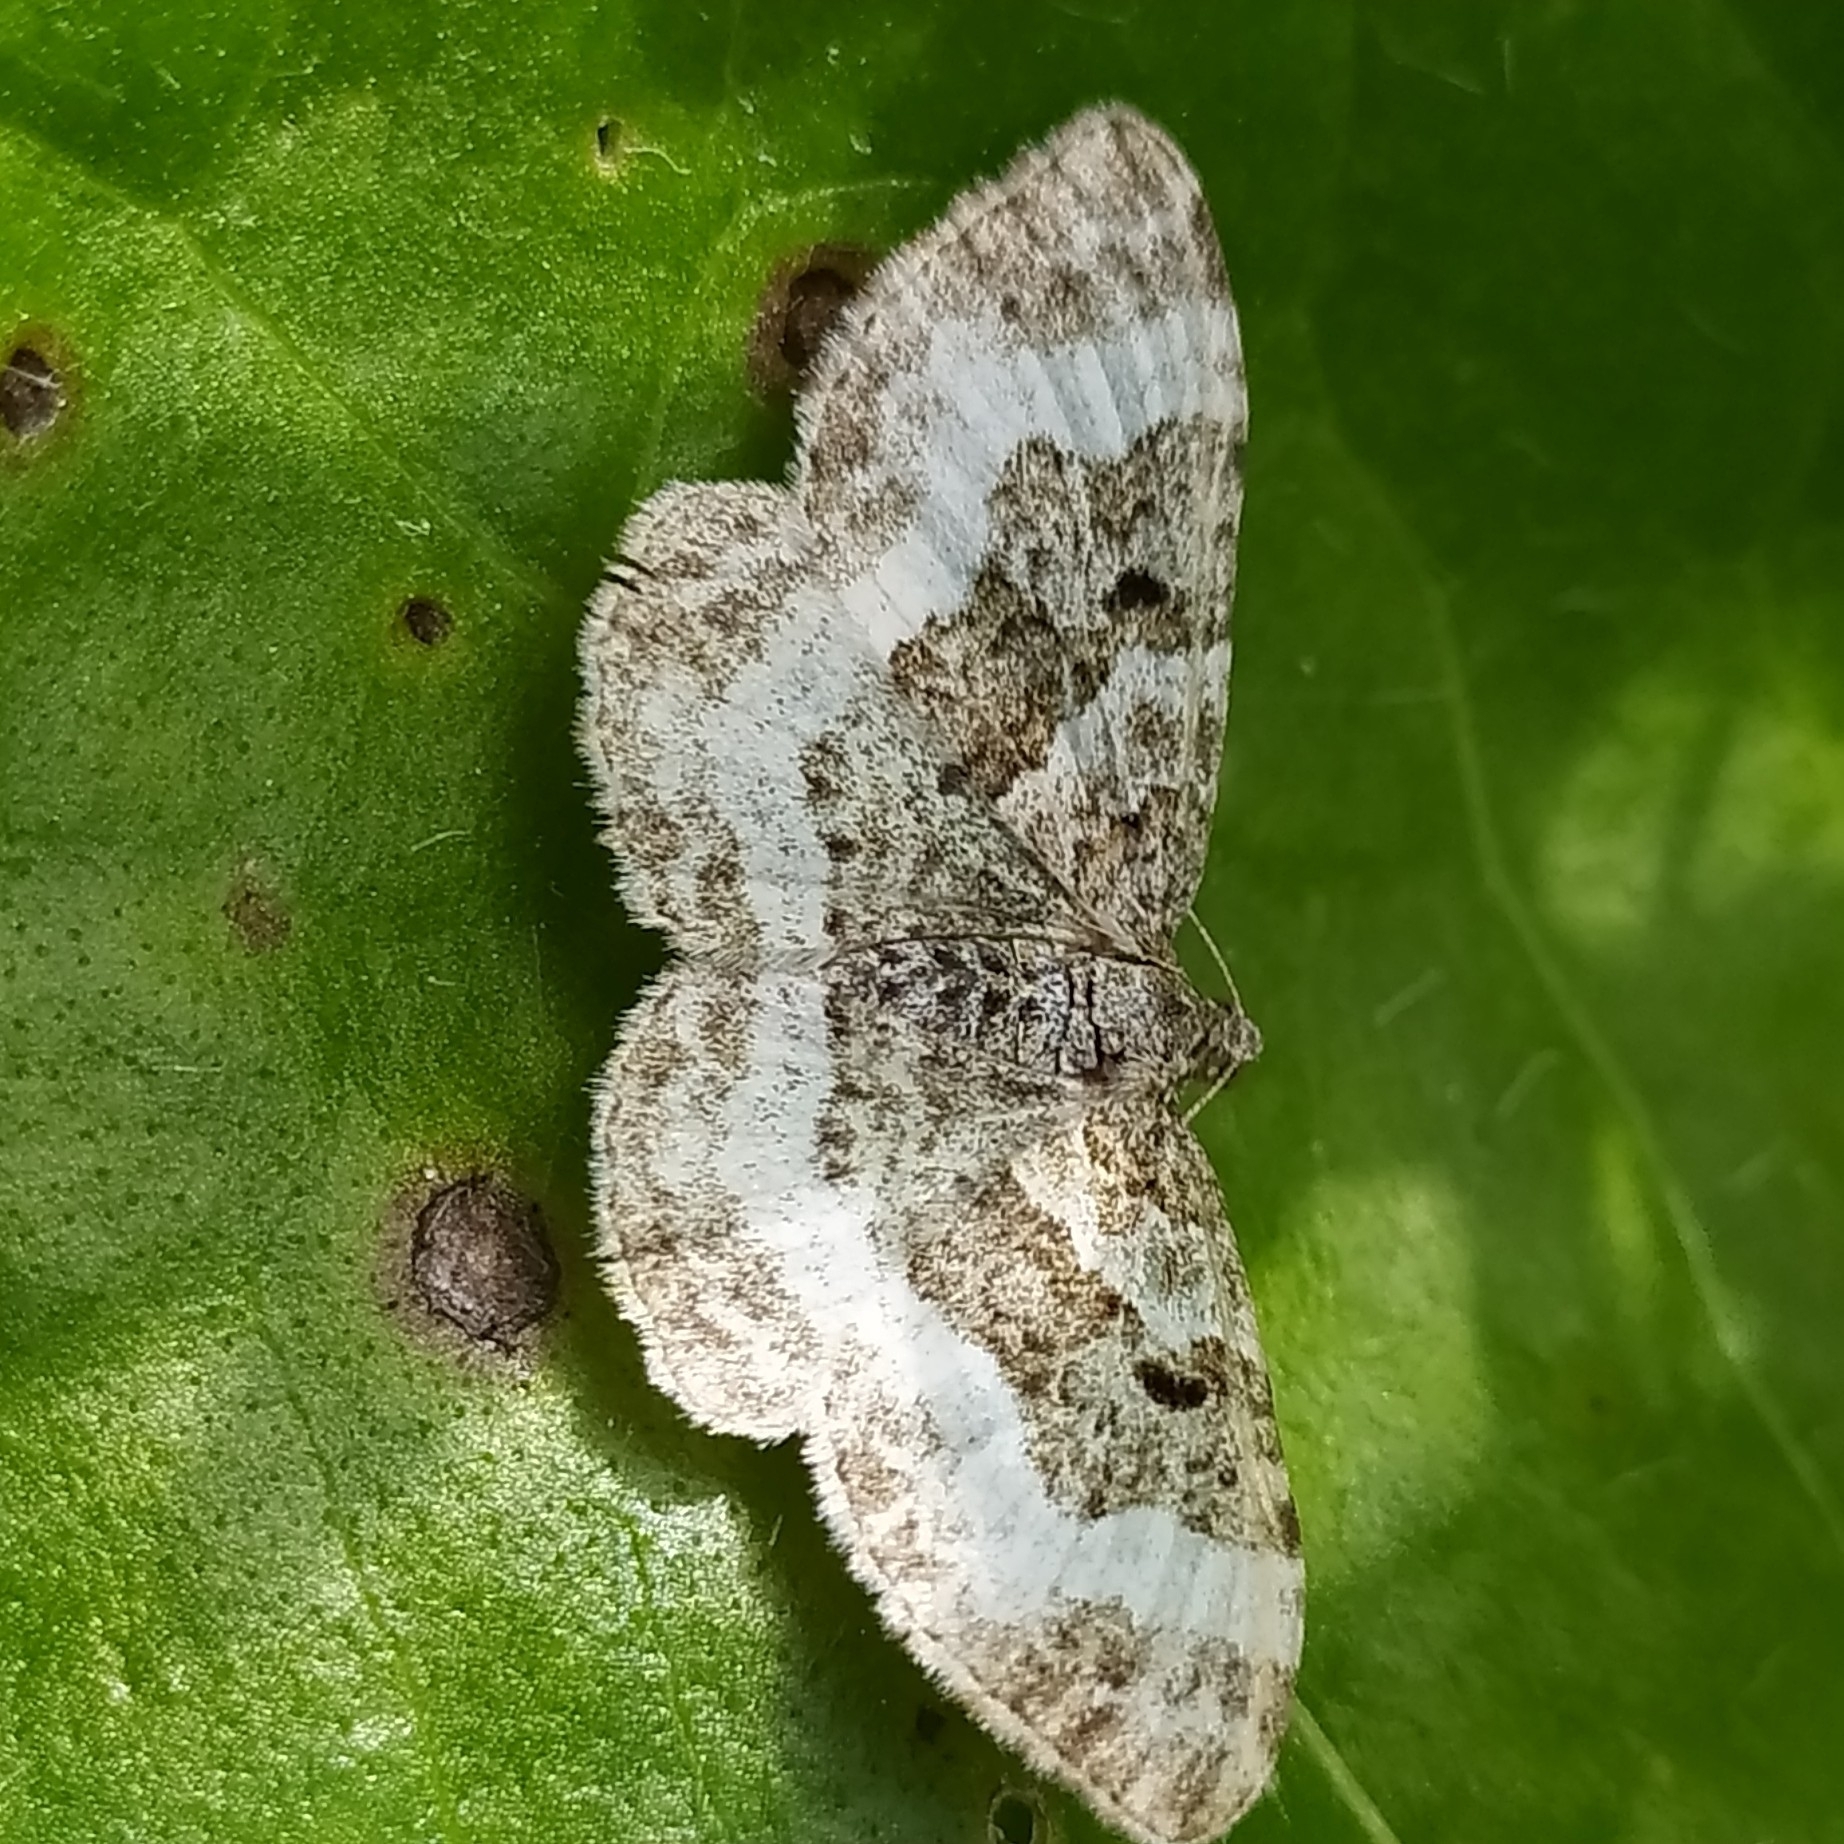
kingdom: Animalia
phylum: Arthropoda
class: Insecta
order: Lepidoptera
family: Geometridae
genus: Epirrhoe
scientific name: Epirrhoe alternata
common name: Common carpet
